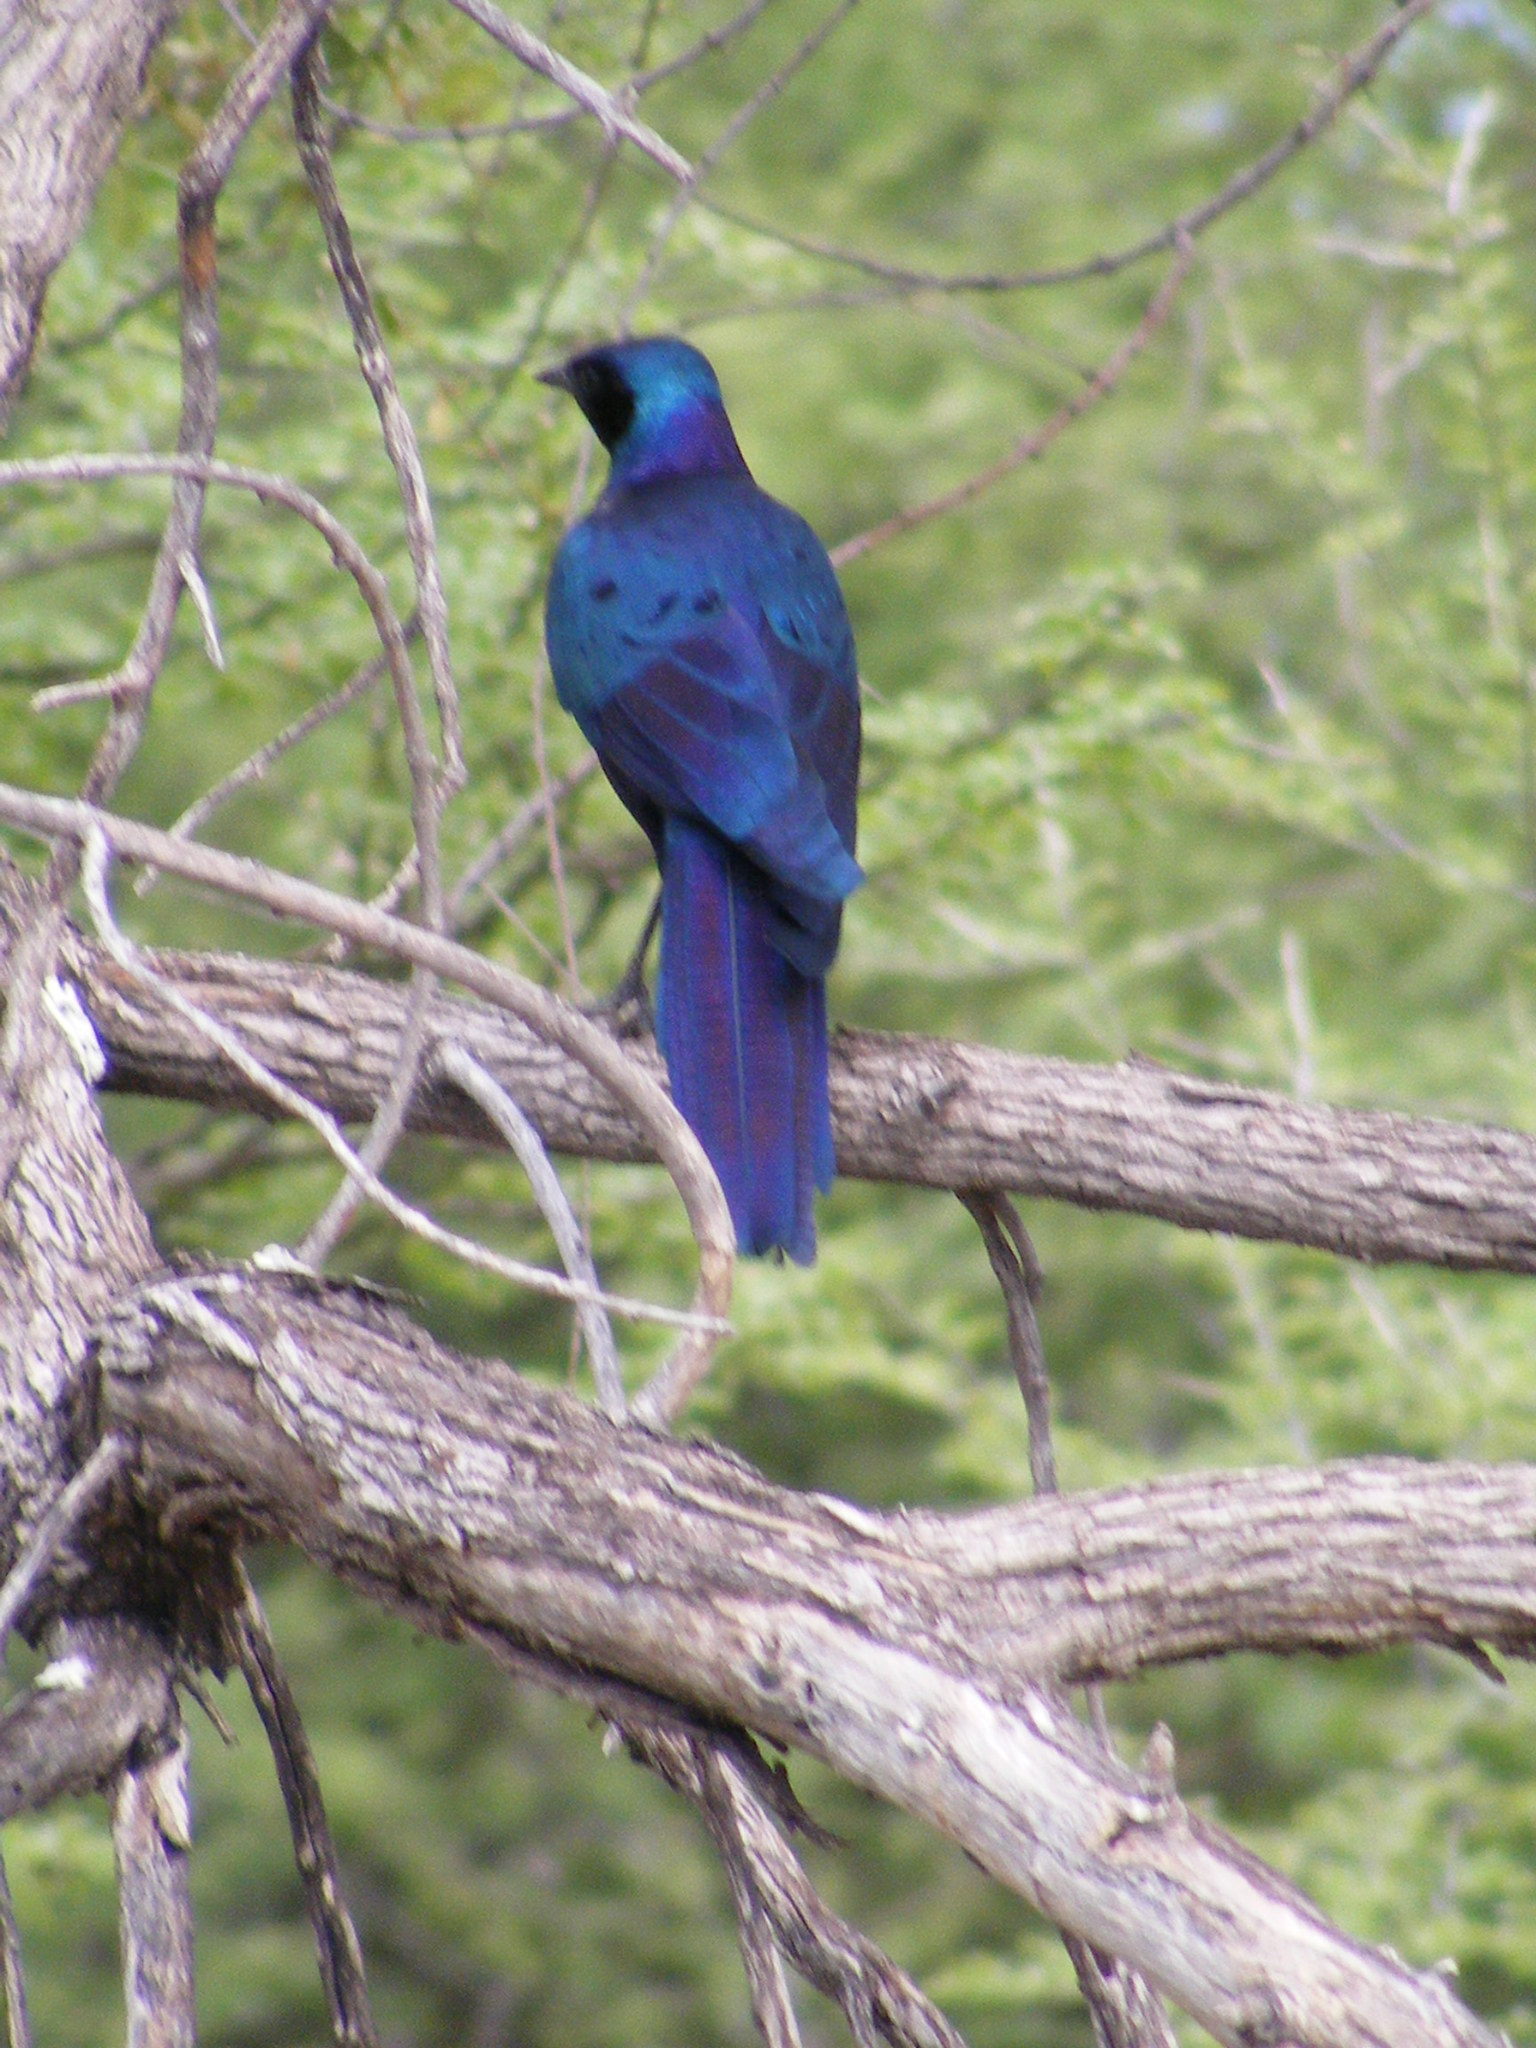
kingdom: Animalia
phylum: Chordata
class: Aves
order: Passeriformes
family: Sturnidae
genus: Lamprotornis
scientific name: Lamprotornis australis
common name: Burchell's starling
